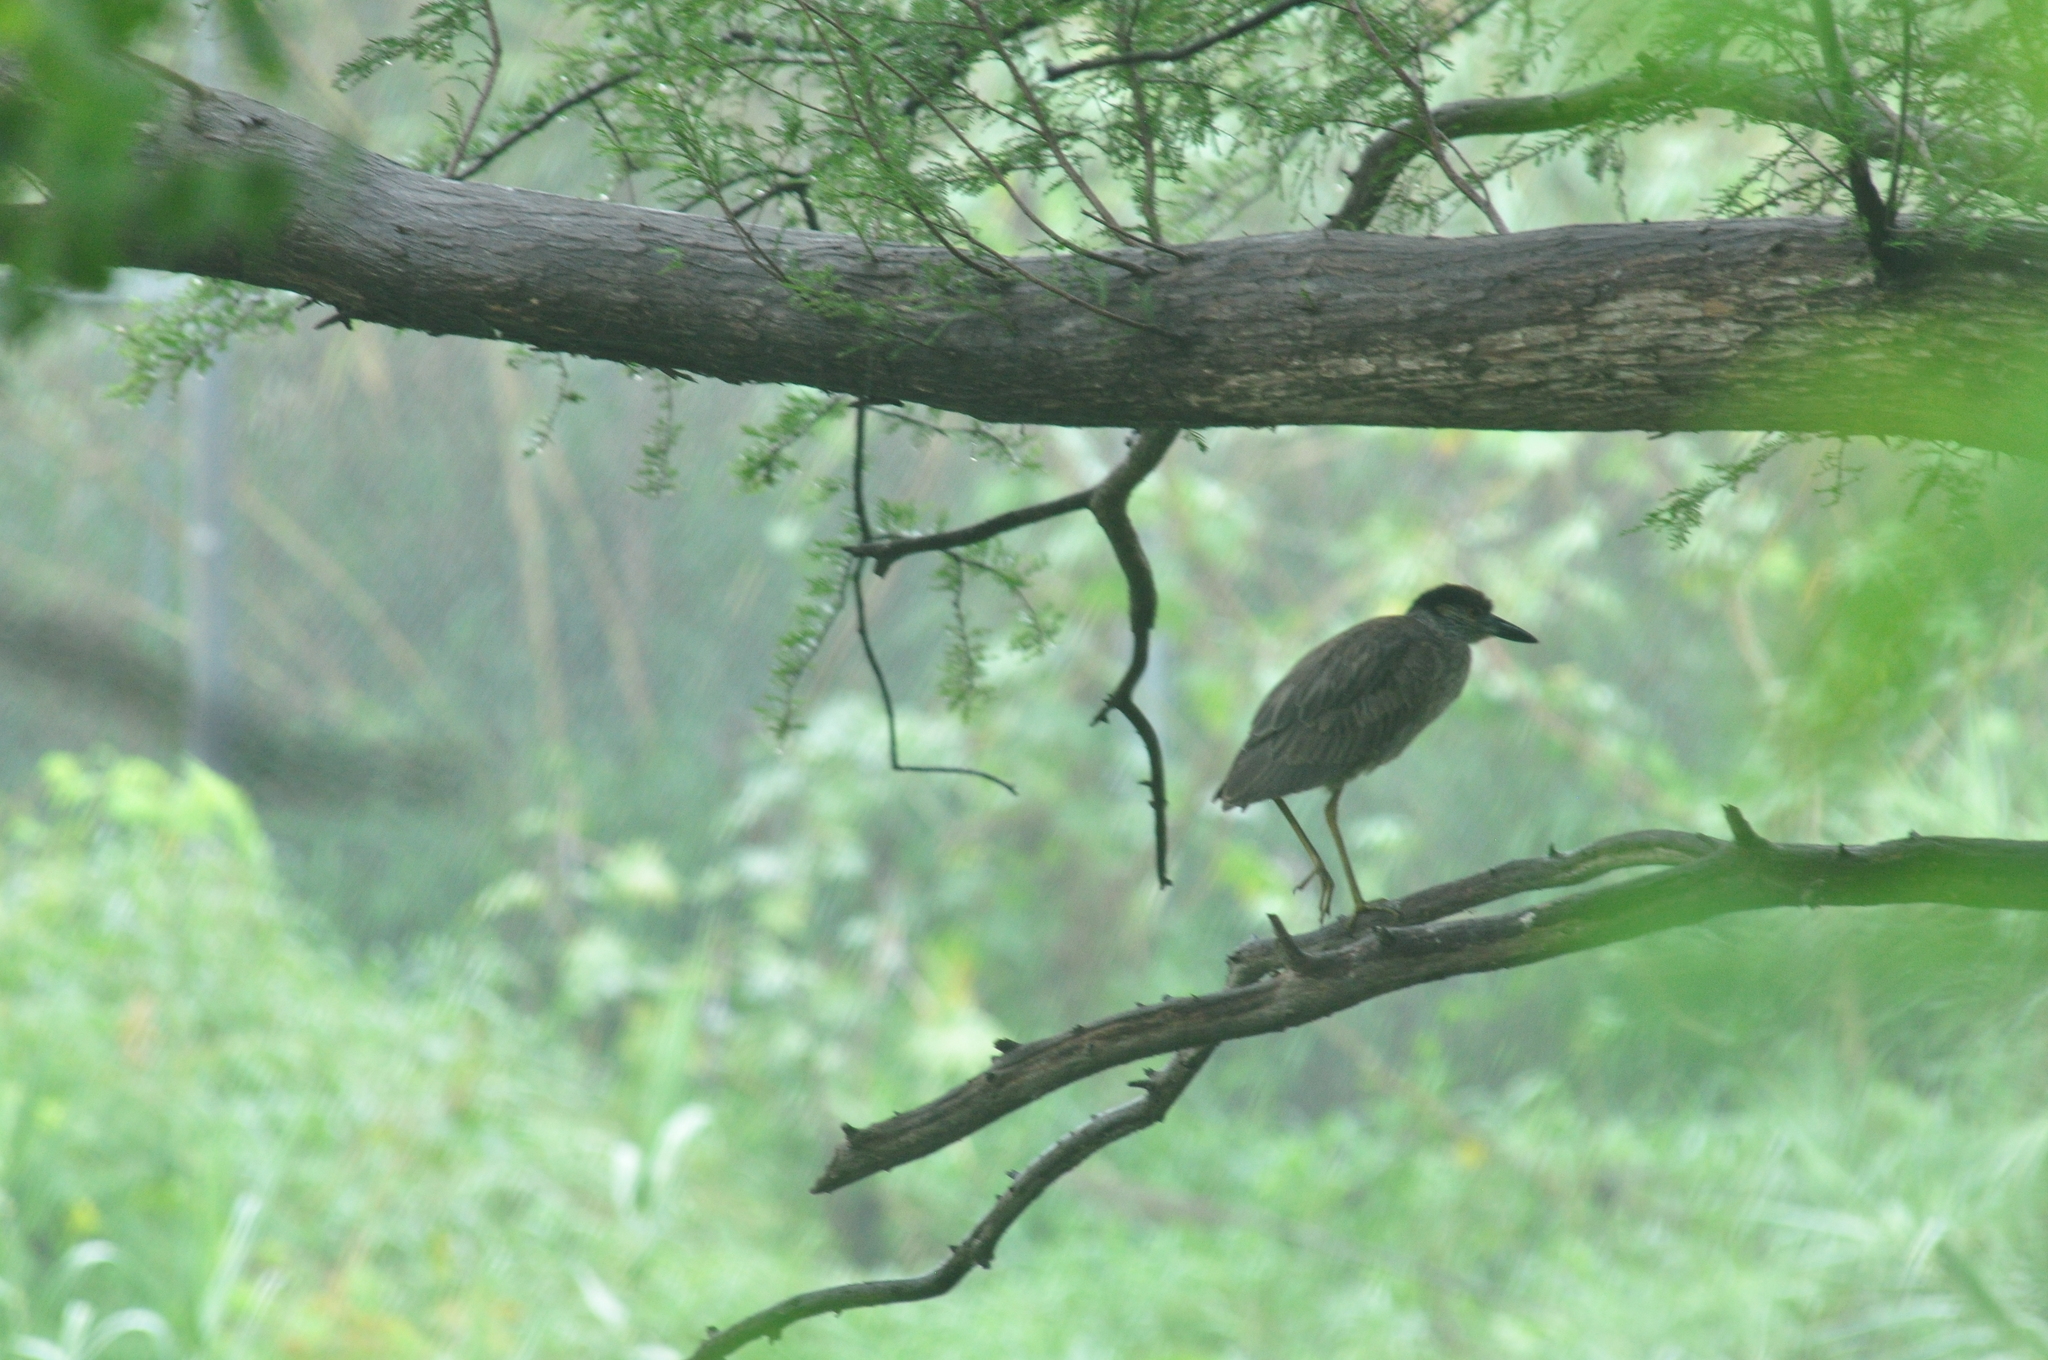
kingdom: Animalia
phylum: Chordata
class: Aves
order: Pelecaniformes
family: Ardeidae
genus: Nyctanassa
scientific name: Nyctanassa violacea
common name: Yellow-crowned night heron
